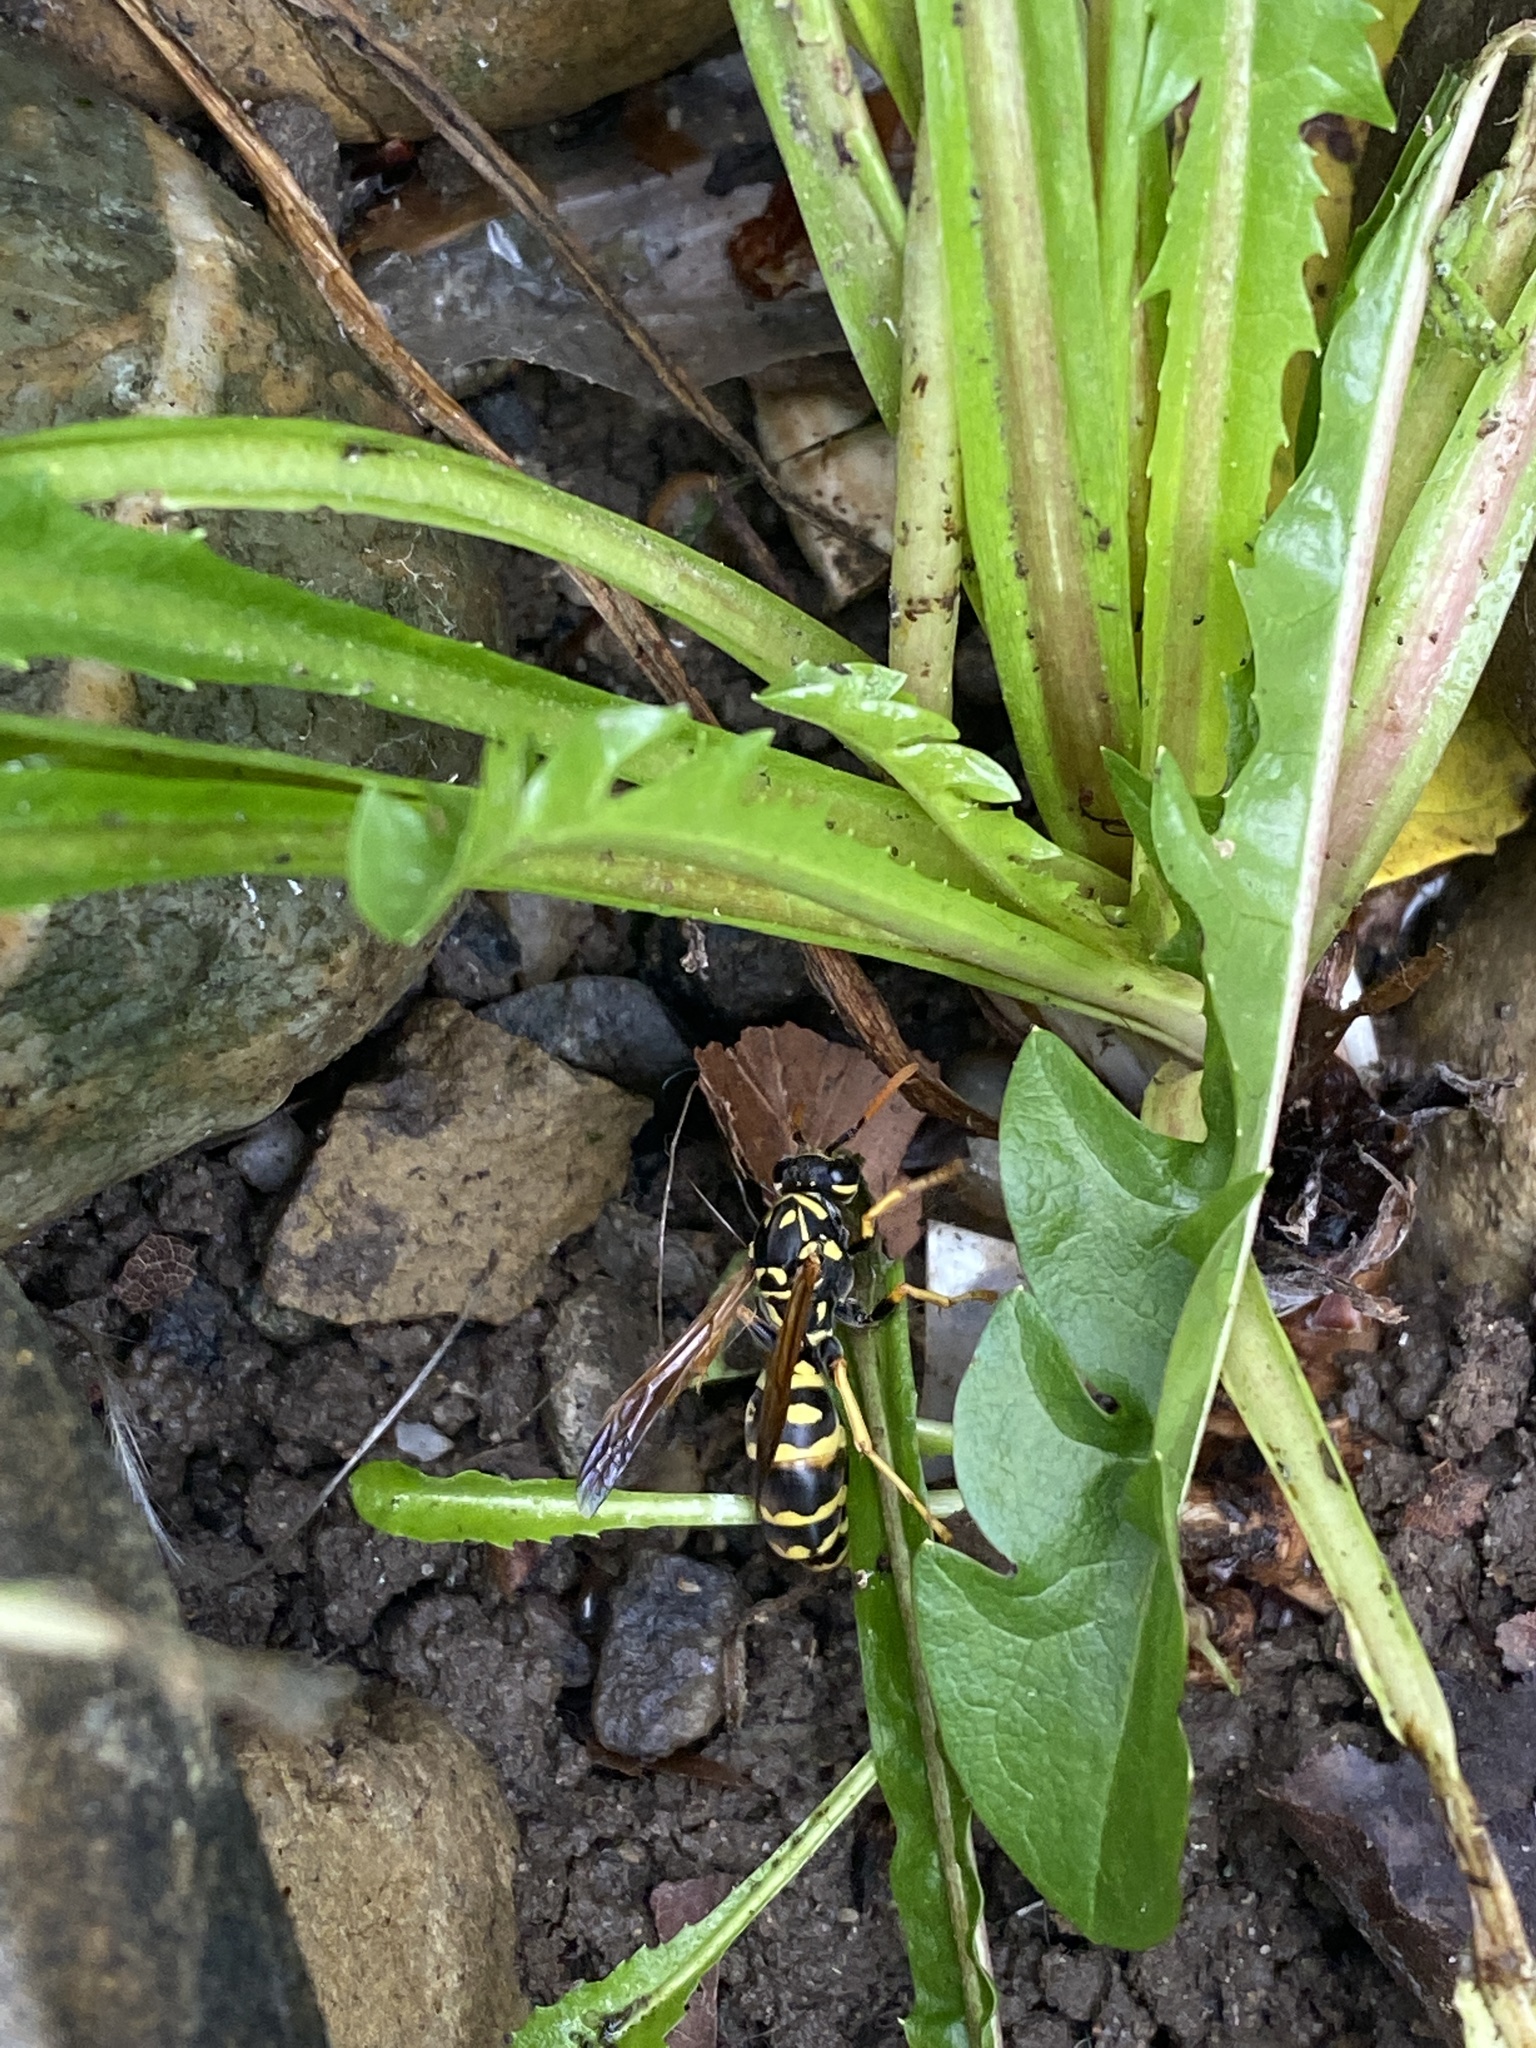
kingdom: Animalia
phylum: Arthropoda
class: Insecta
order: Hymenoptera
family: Eumenidae
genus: Polistes
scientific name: Polistes dominula
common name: Paper wasp
